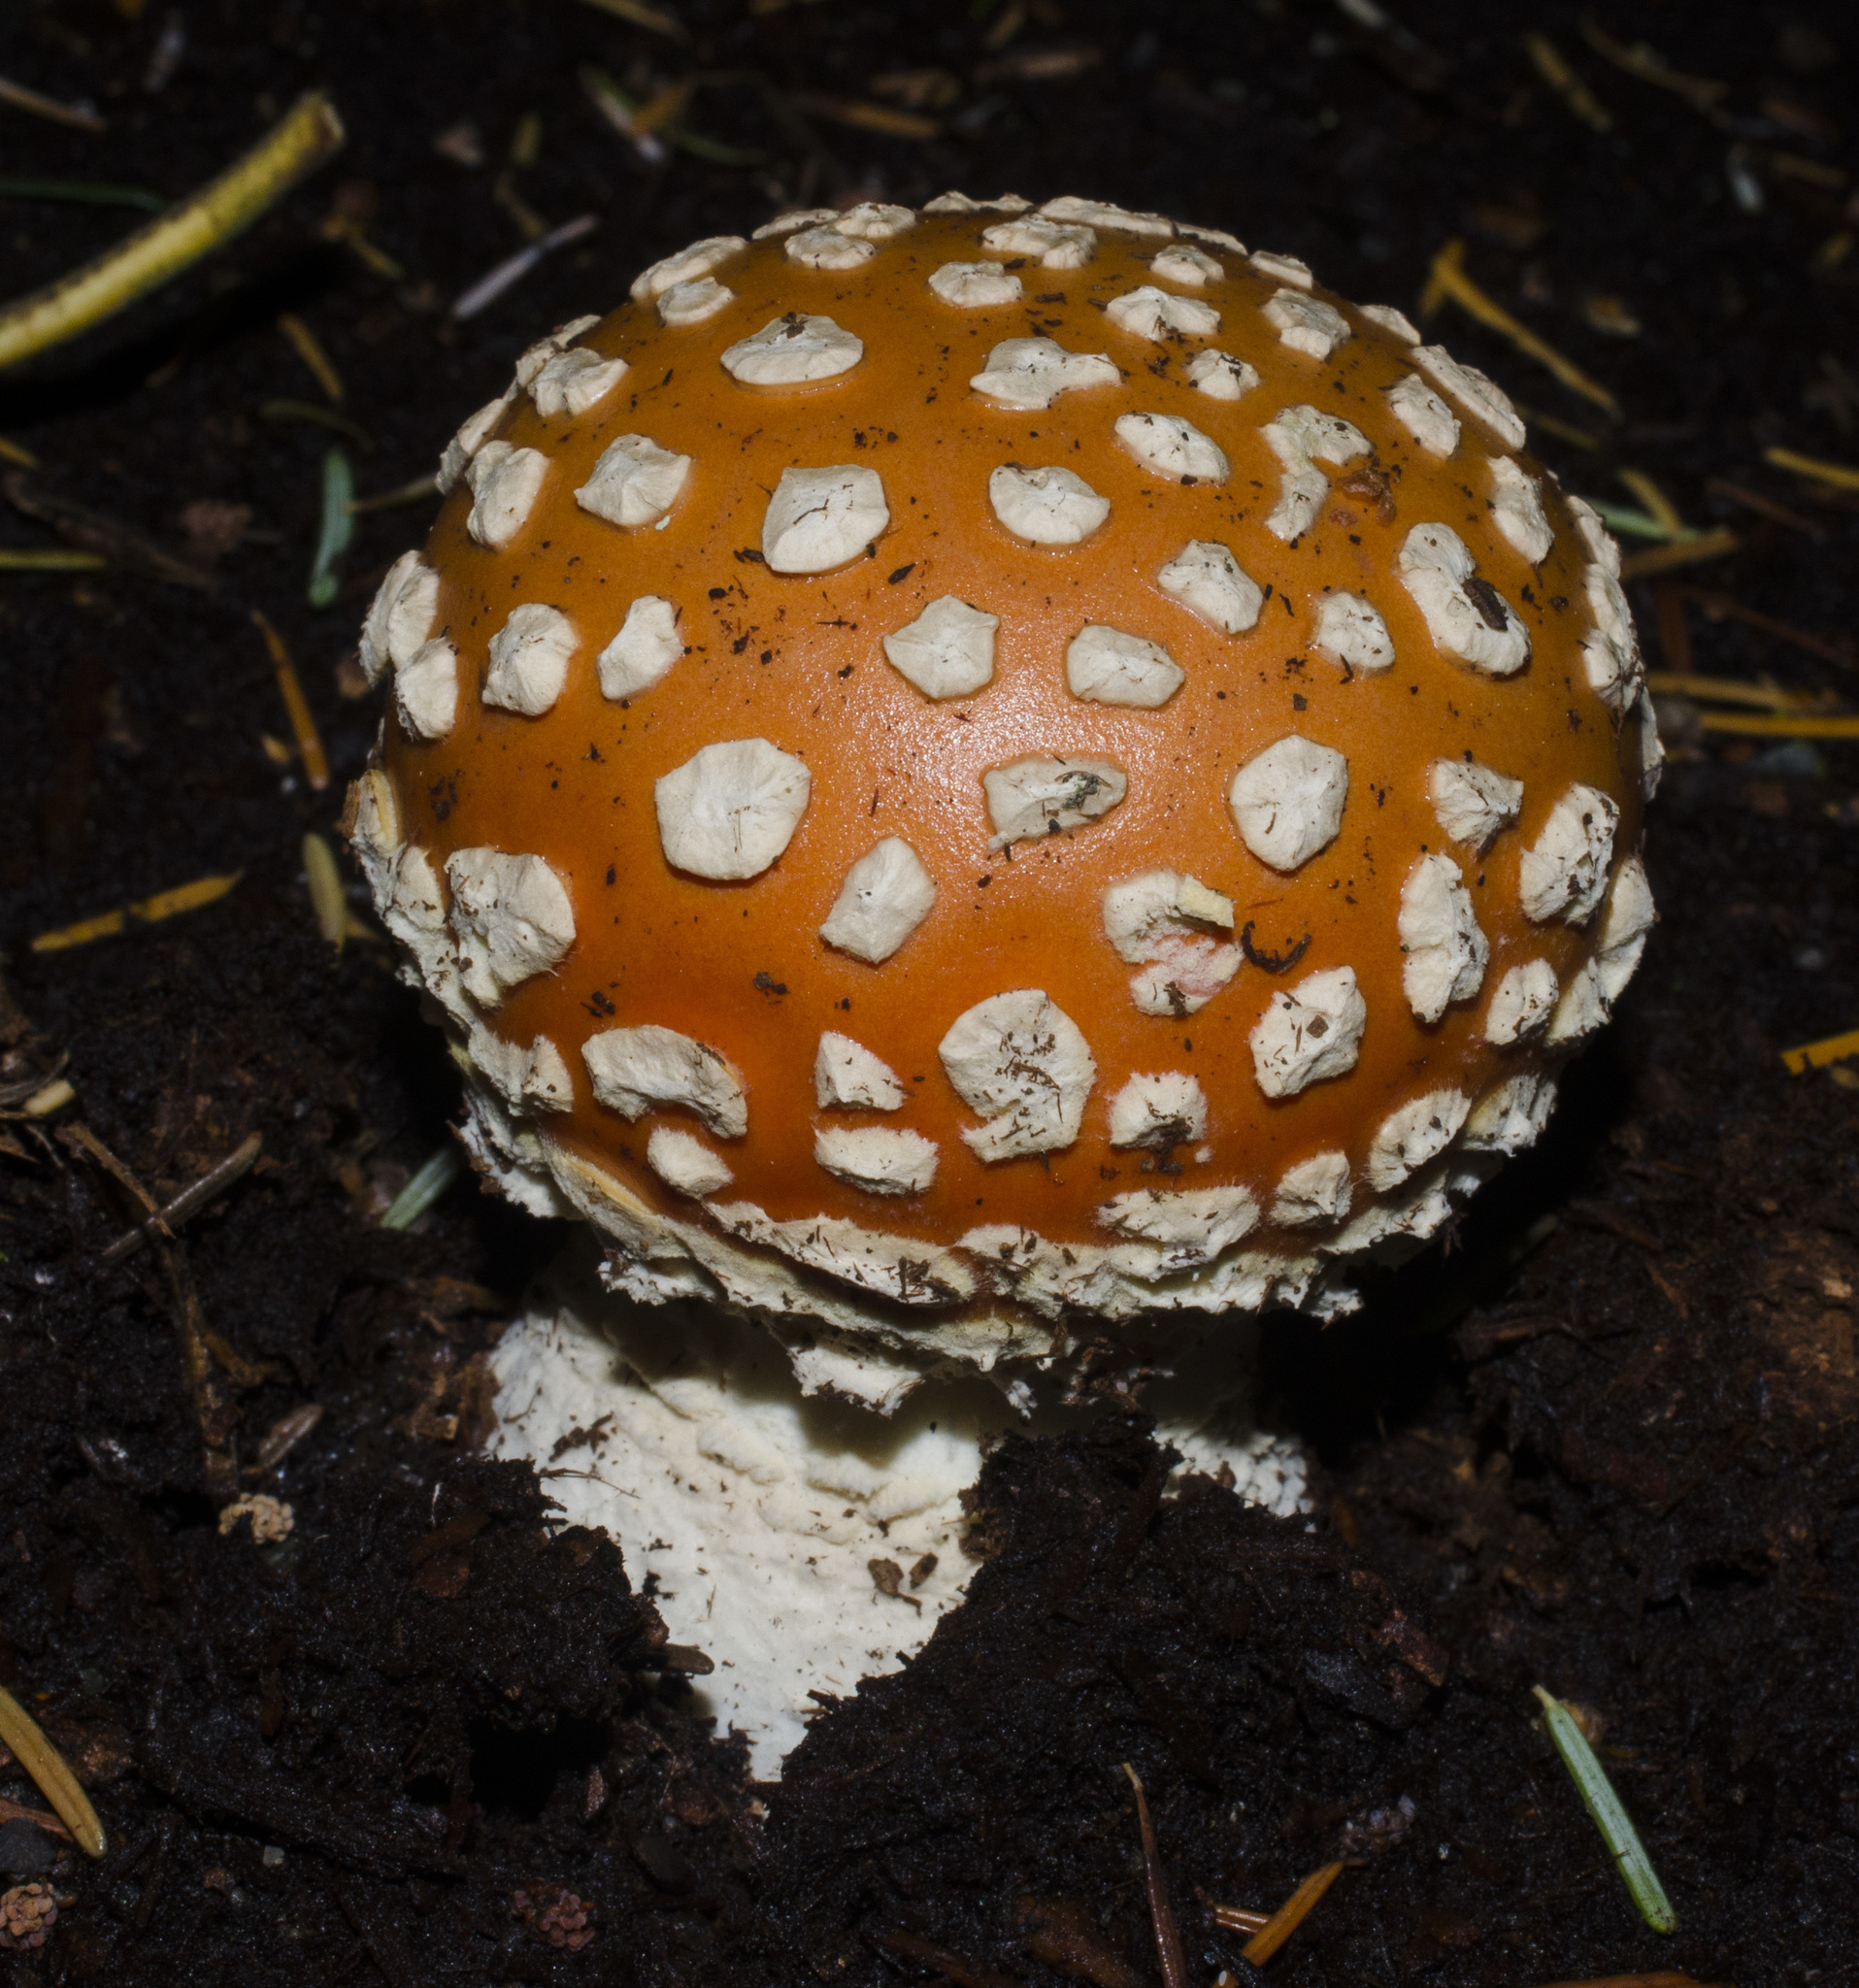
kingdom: Fungi
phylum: Basidiomycota
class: Agaricomycetes
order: Agaricales
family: Amanitaceae
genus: Amanita
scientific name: Amanita muscaria
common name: Fly agaric
